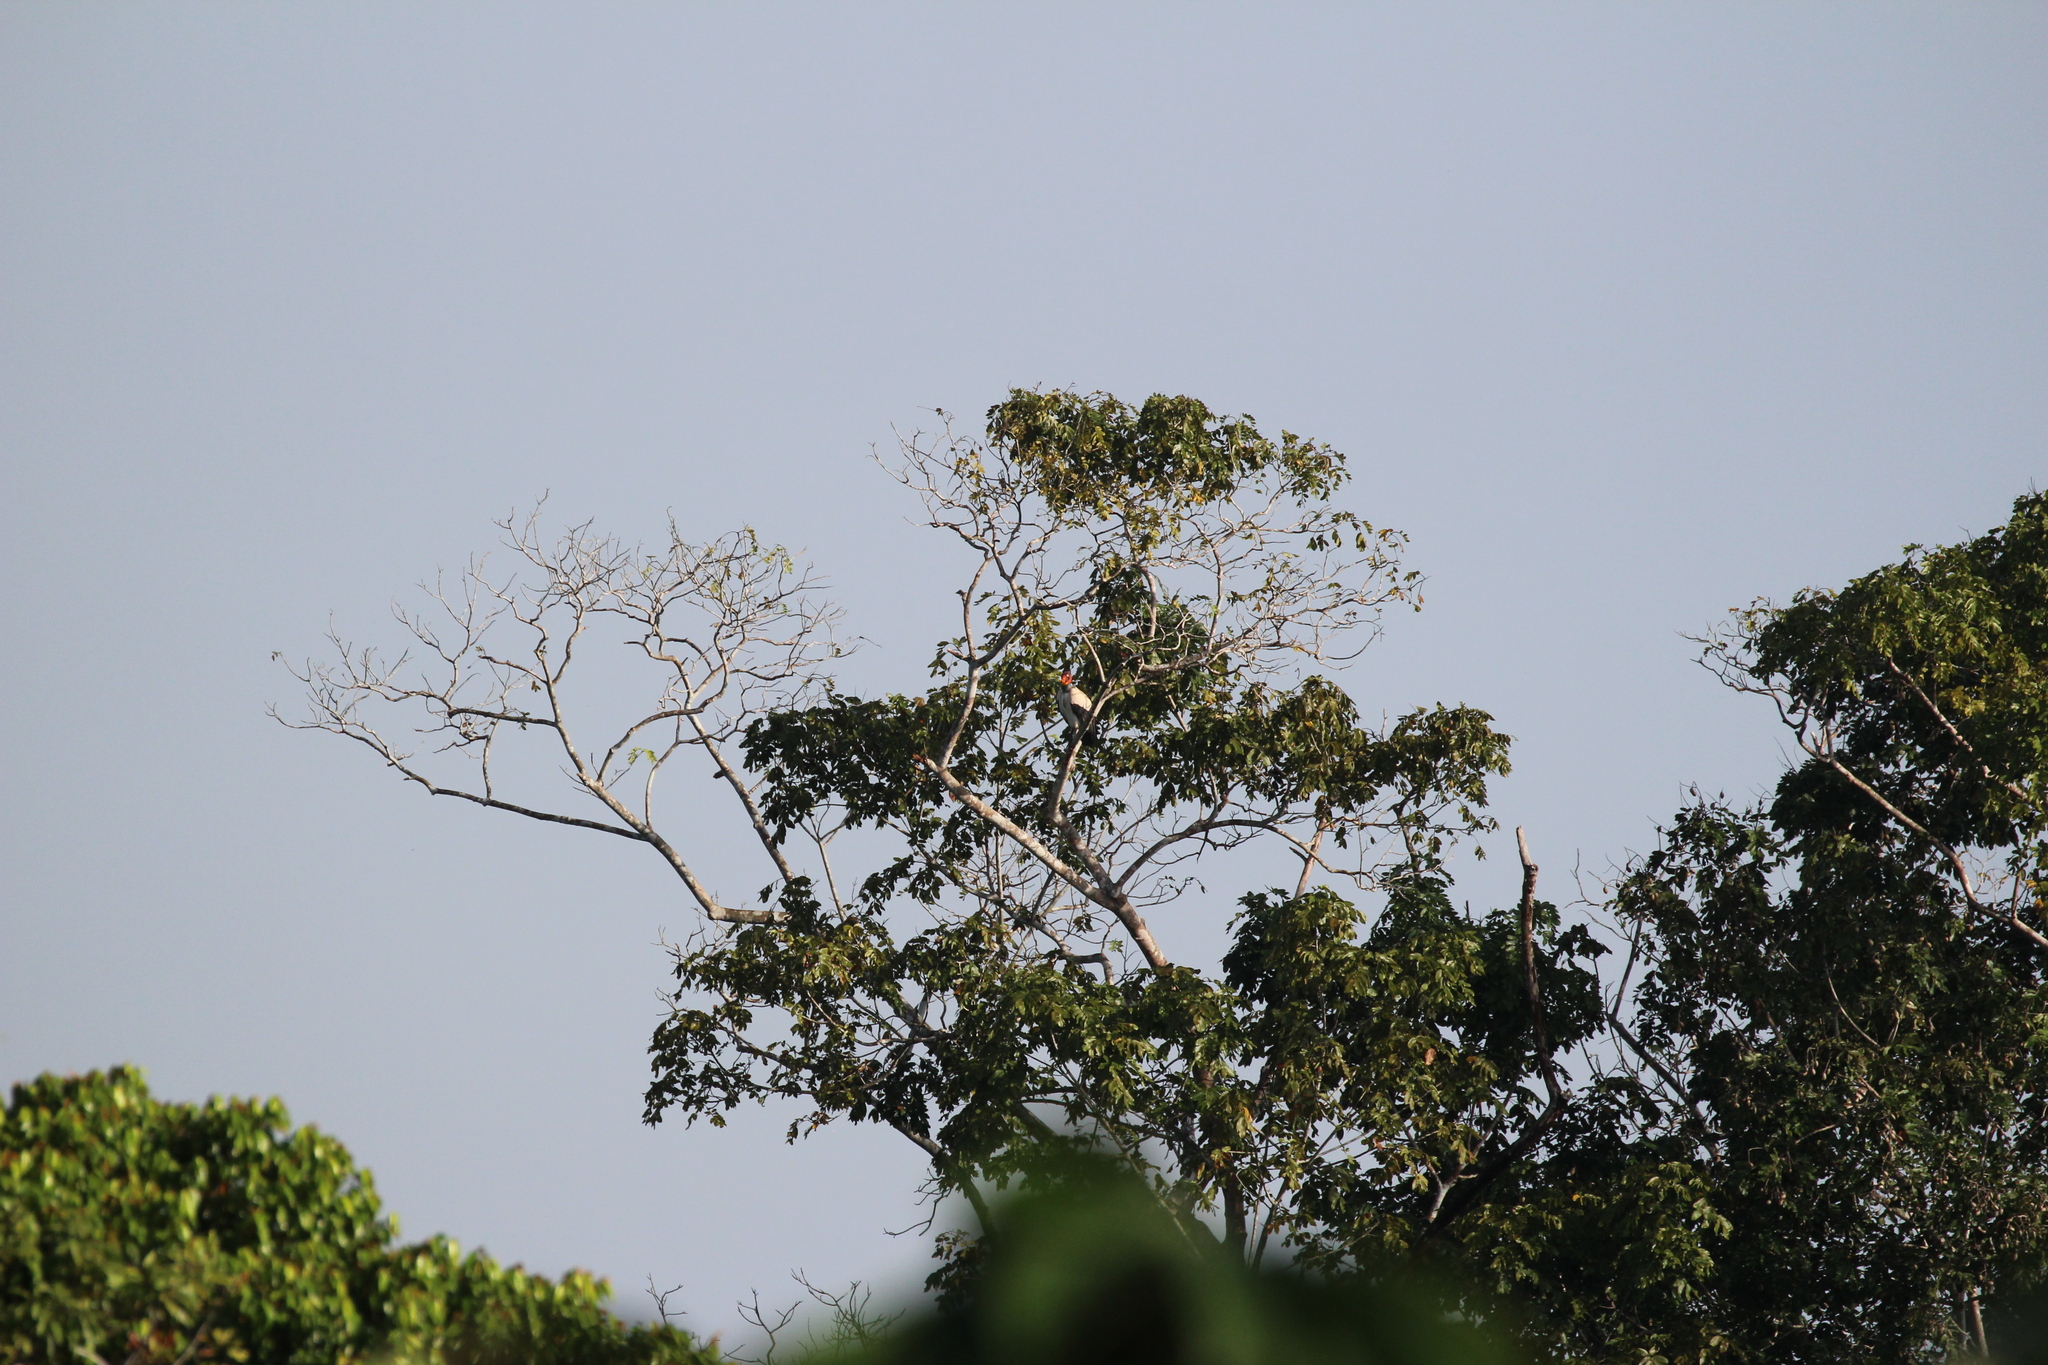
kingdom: Animalia
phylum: Chordata
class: Aves
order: Accipitriformes
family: Cathartidae
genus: Sarcoramphus
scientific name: Sarcoramphus papa
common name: King vulture
